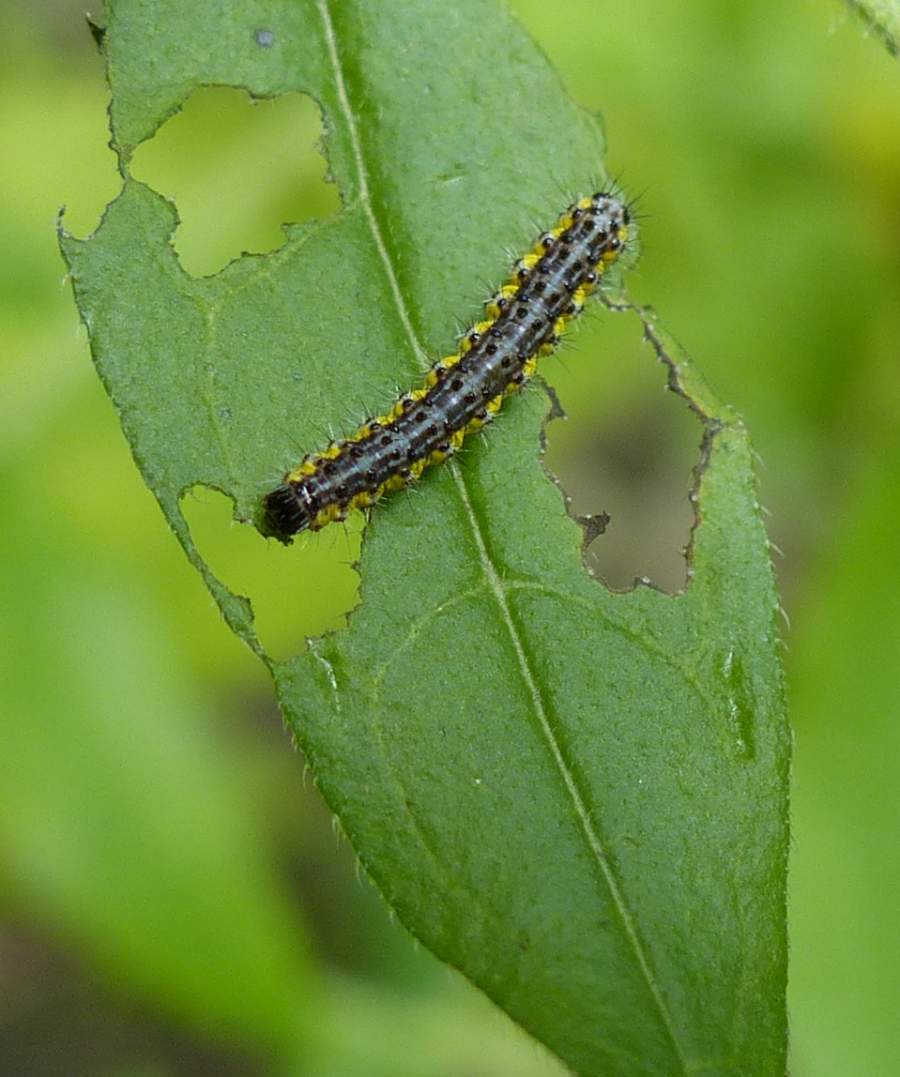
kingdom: Animalia
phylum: Arthropoda
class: Insecta
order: Lepidoptera
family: Erebidae
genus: Haploa
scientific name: Haploa contigua
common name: Neighbor moth
